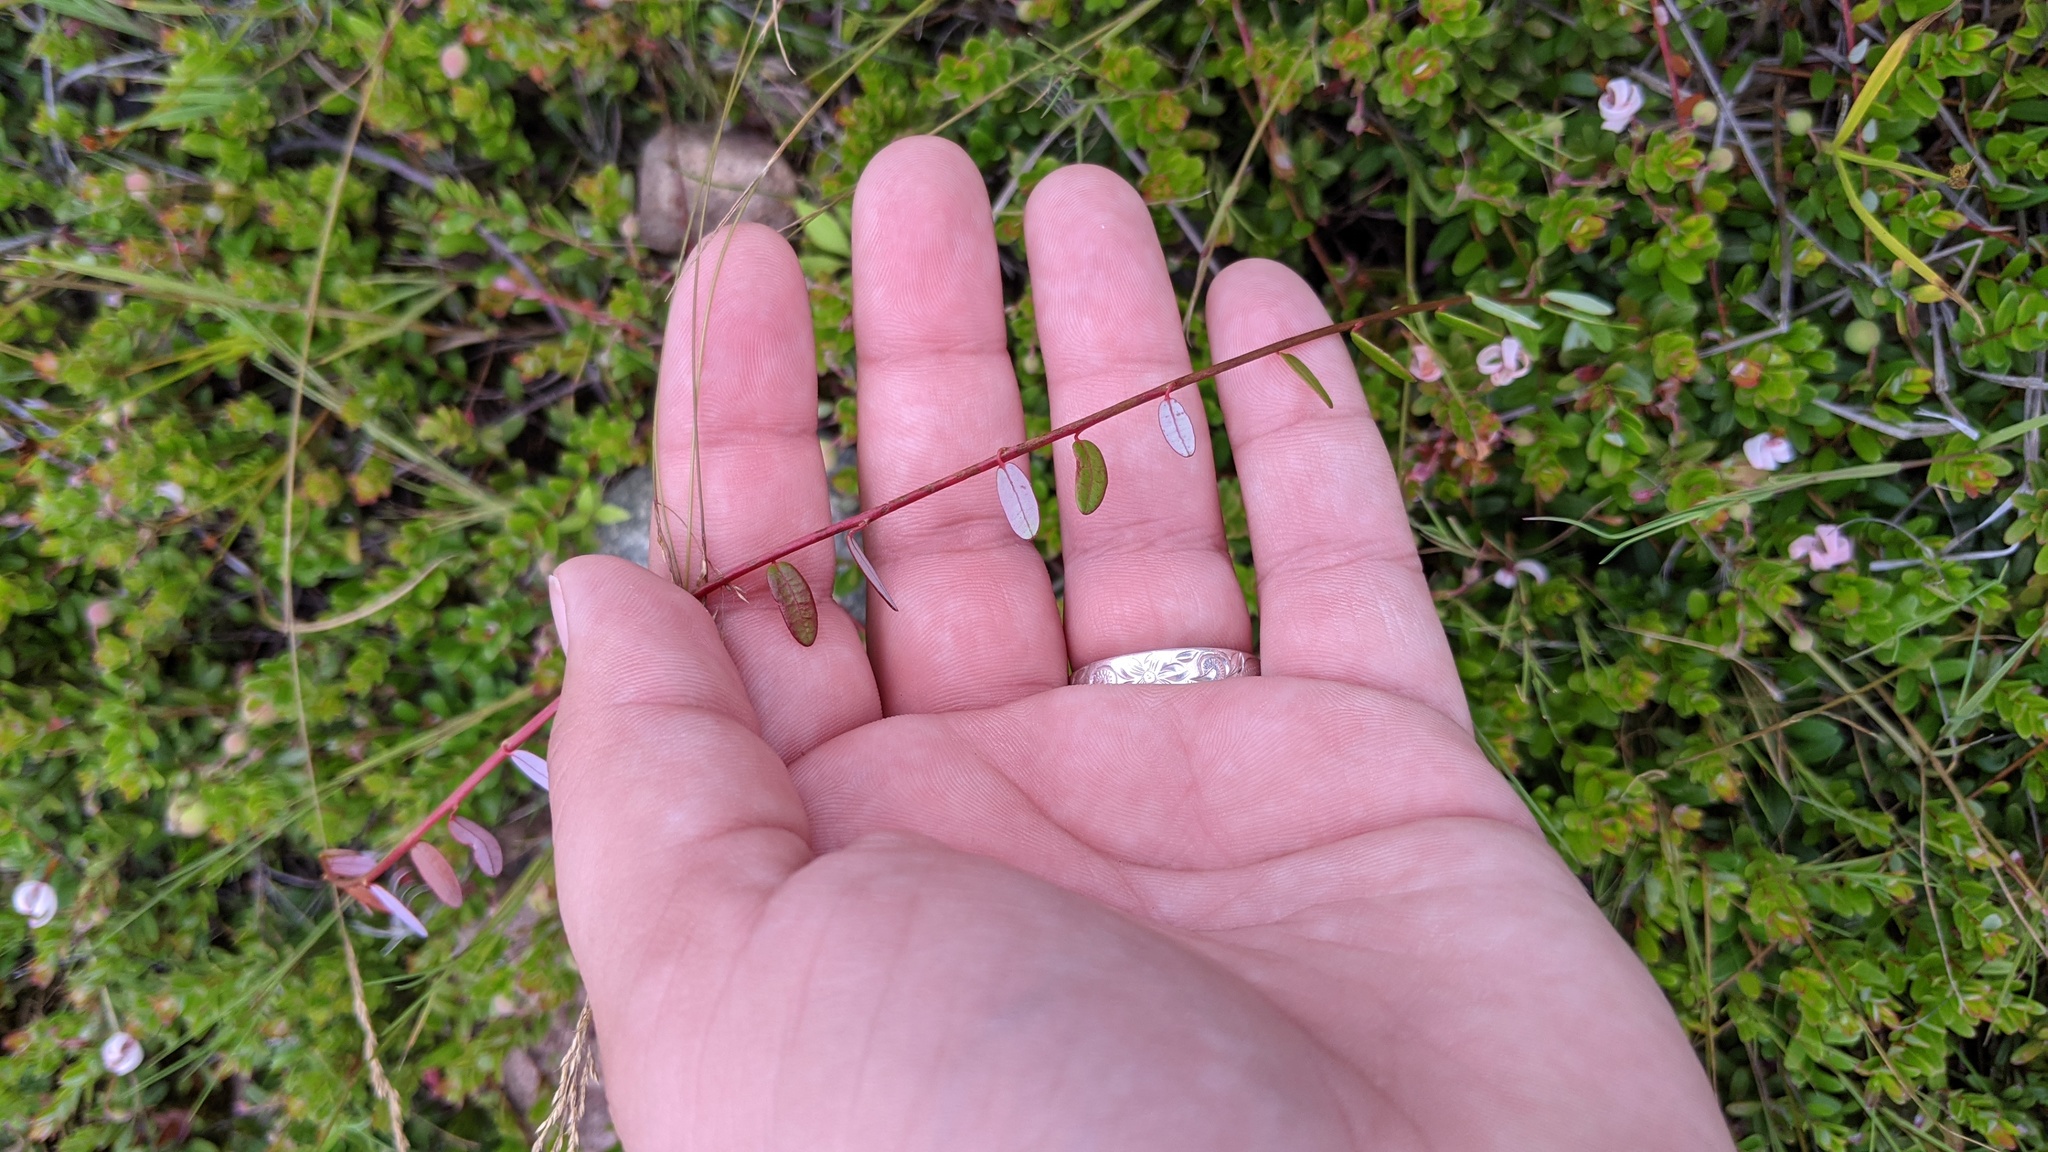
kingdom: Plantae
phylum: Tracheophyta
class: Magnoliopsida
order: Ericales
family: Ericaceae
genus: Vaccinium
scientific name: Vaccinium macrocarpon
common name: American cranberry
